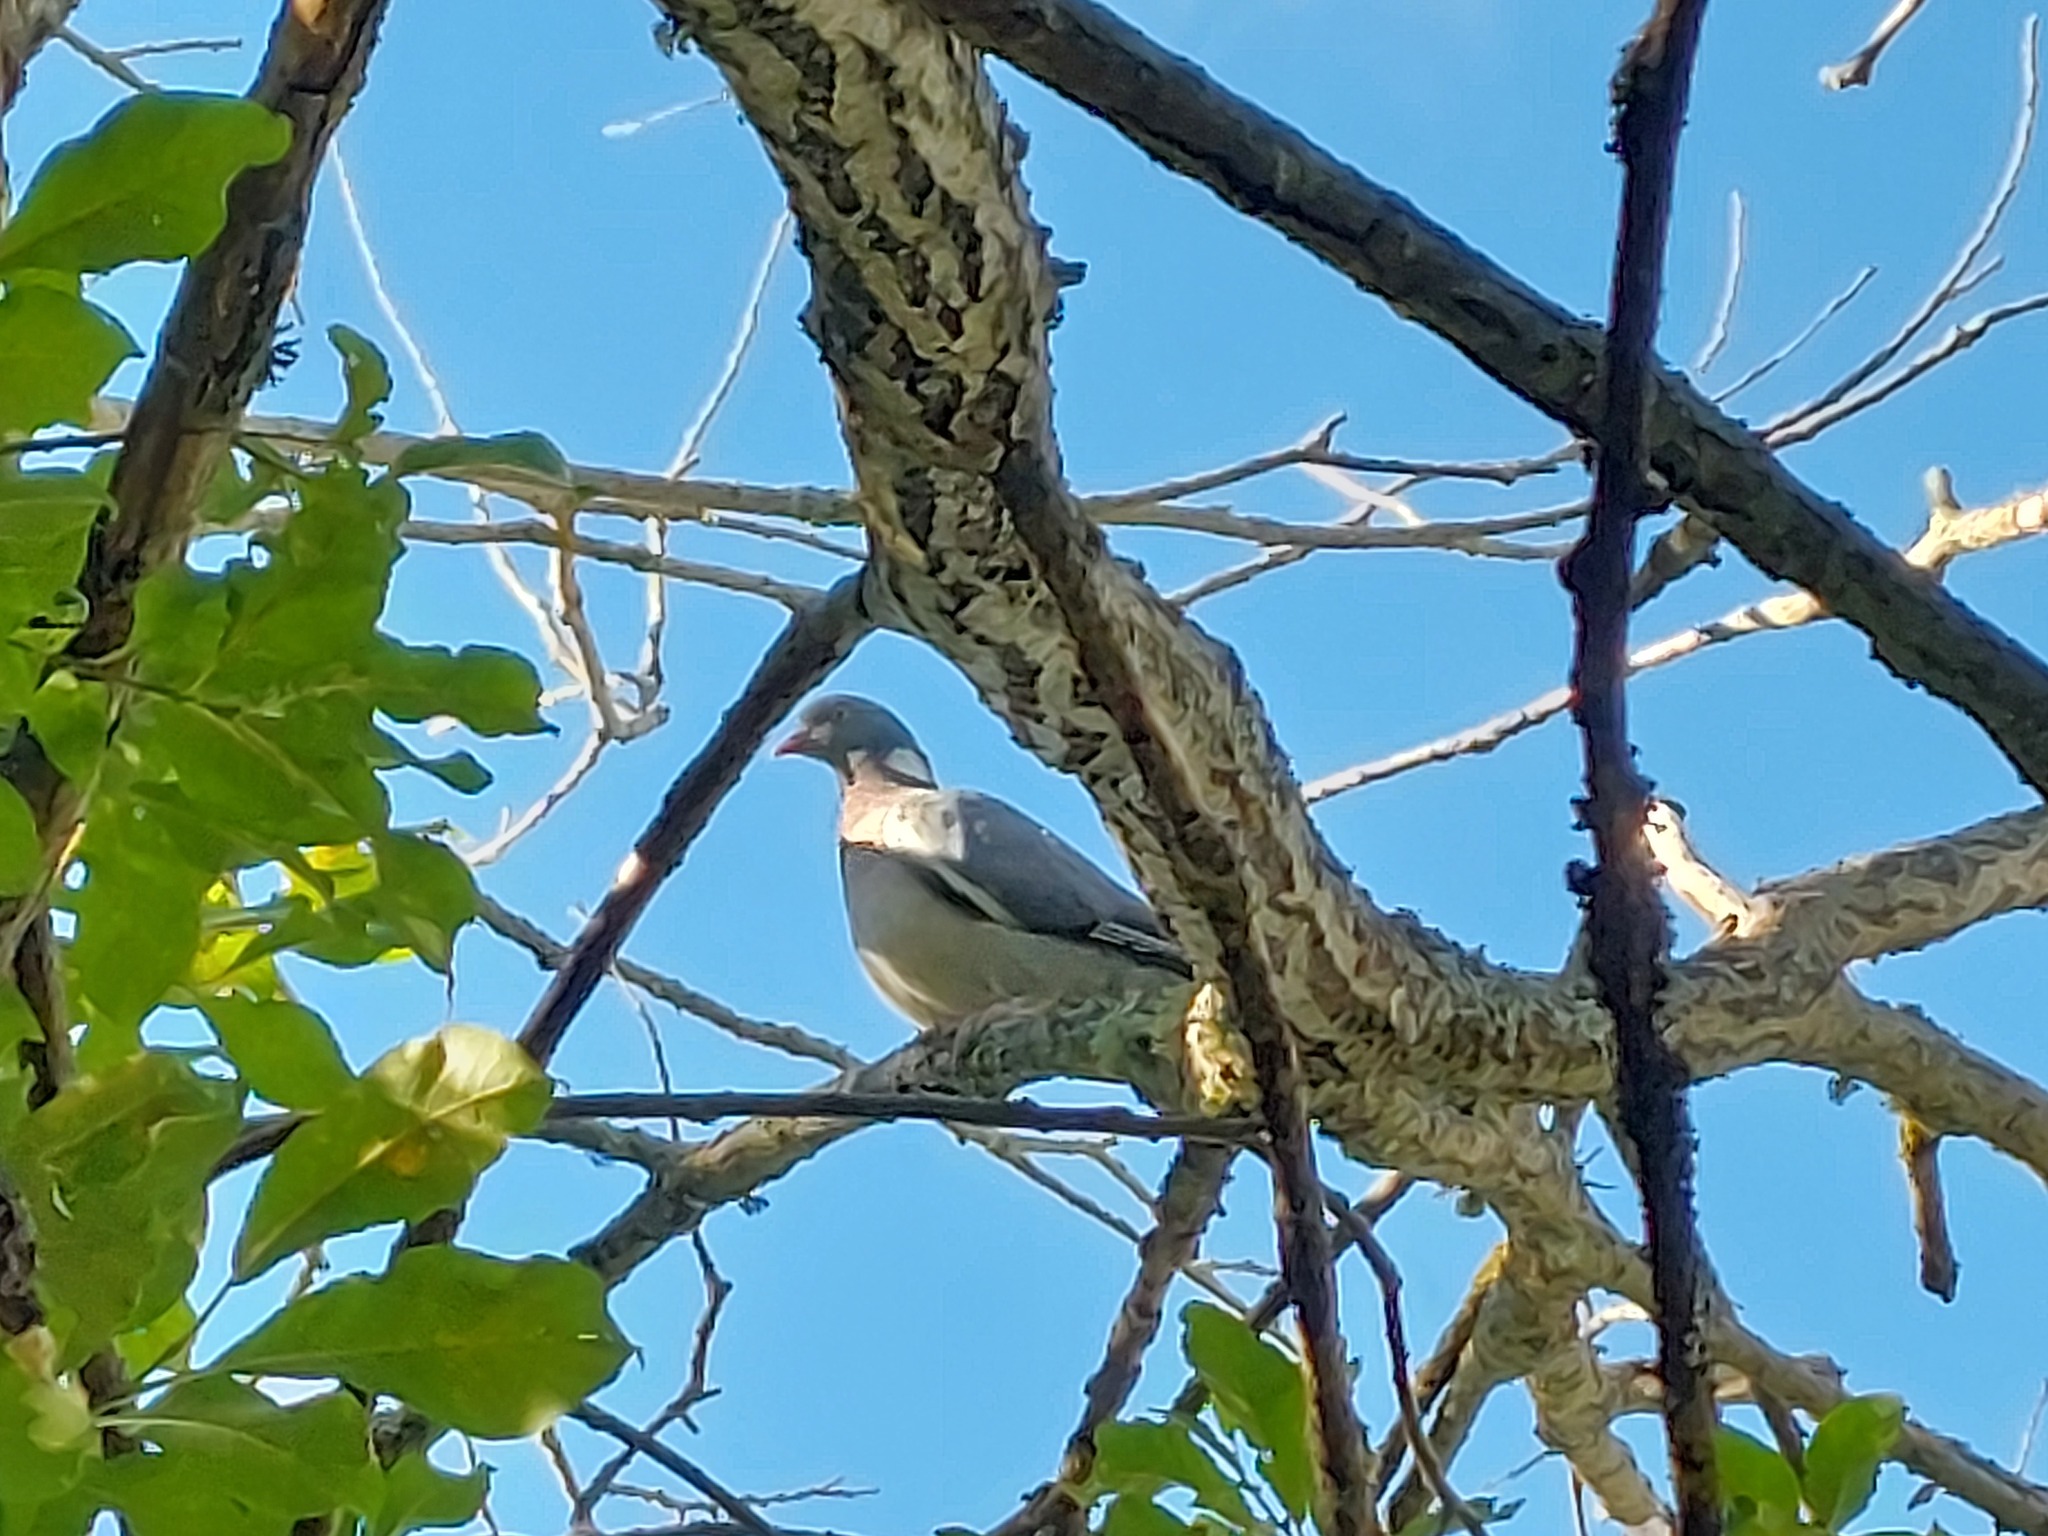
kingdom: Animalia
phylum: Chordata
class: Aves
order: Columbiformes
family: Columbidae
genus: Columba
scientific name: Columba palumbus
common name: Common wood pigeon
